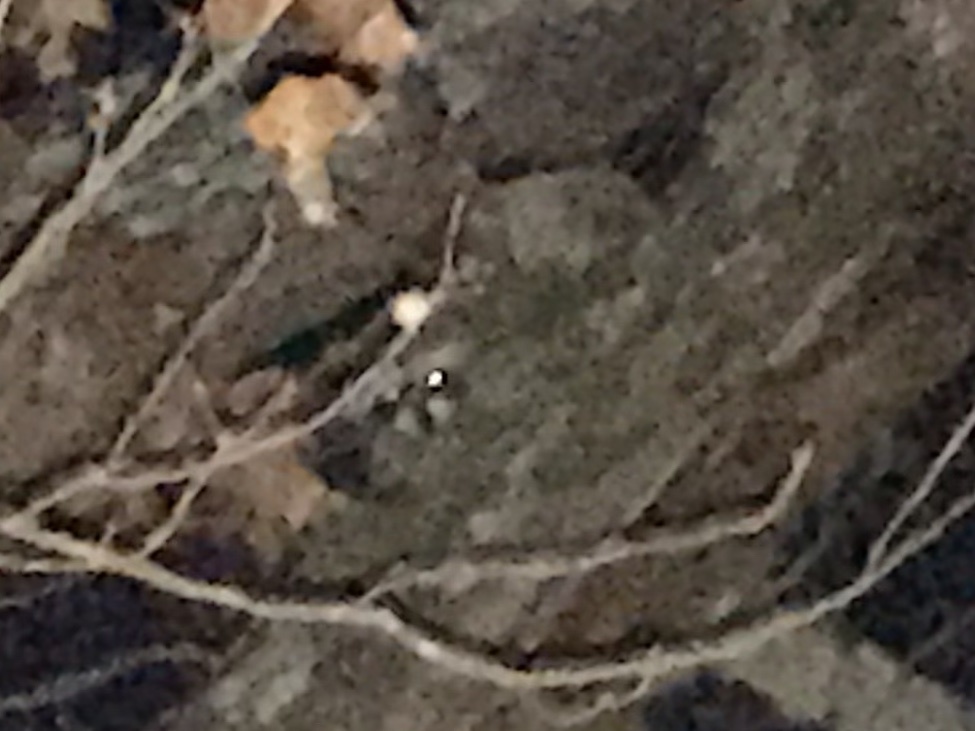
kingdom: Animalia
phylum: Chordata
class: Mammalia
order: Carnivora
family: Procyonidae
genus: Procyon
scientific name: Procyon lotor
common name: Raccoon
